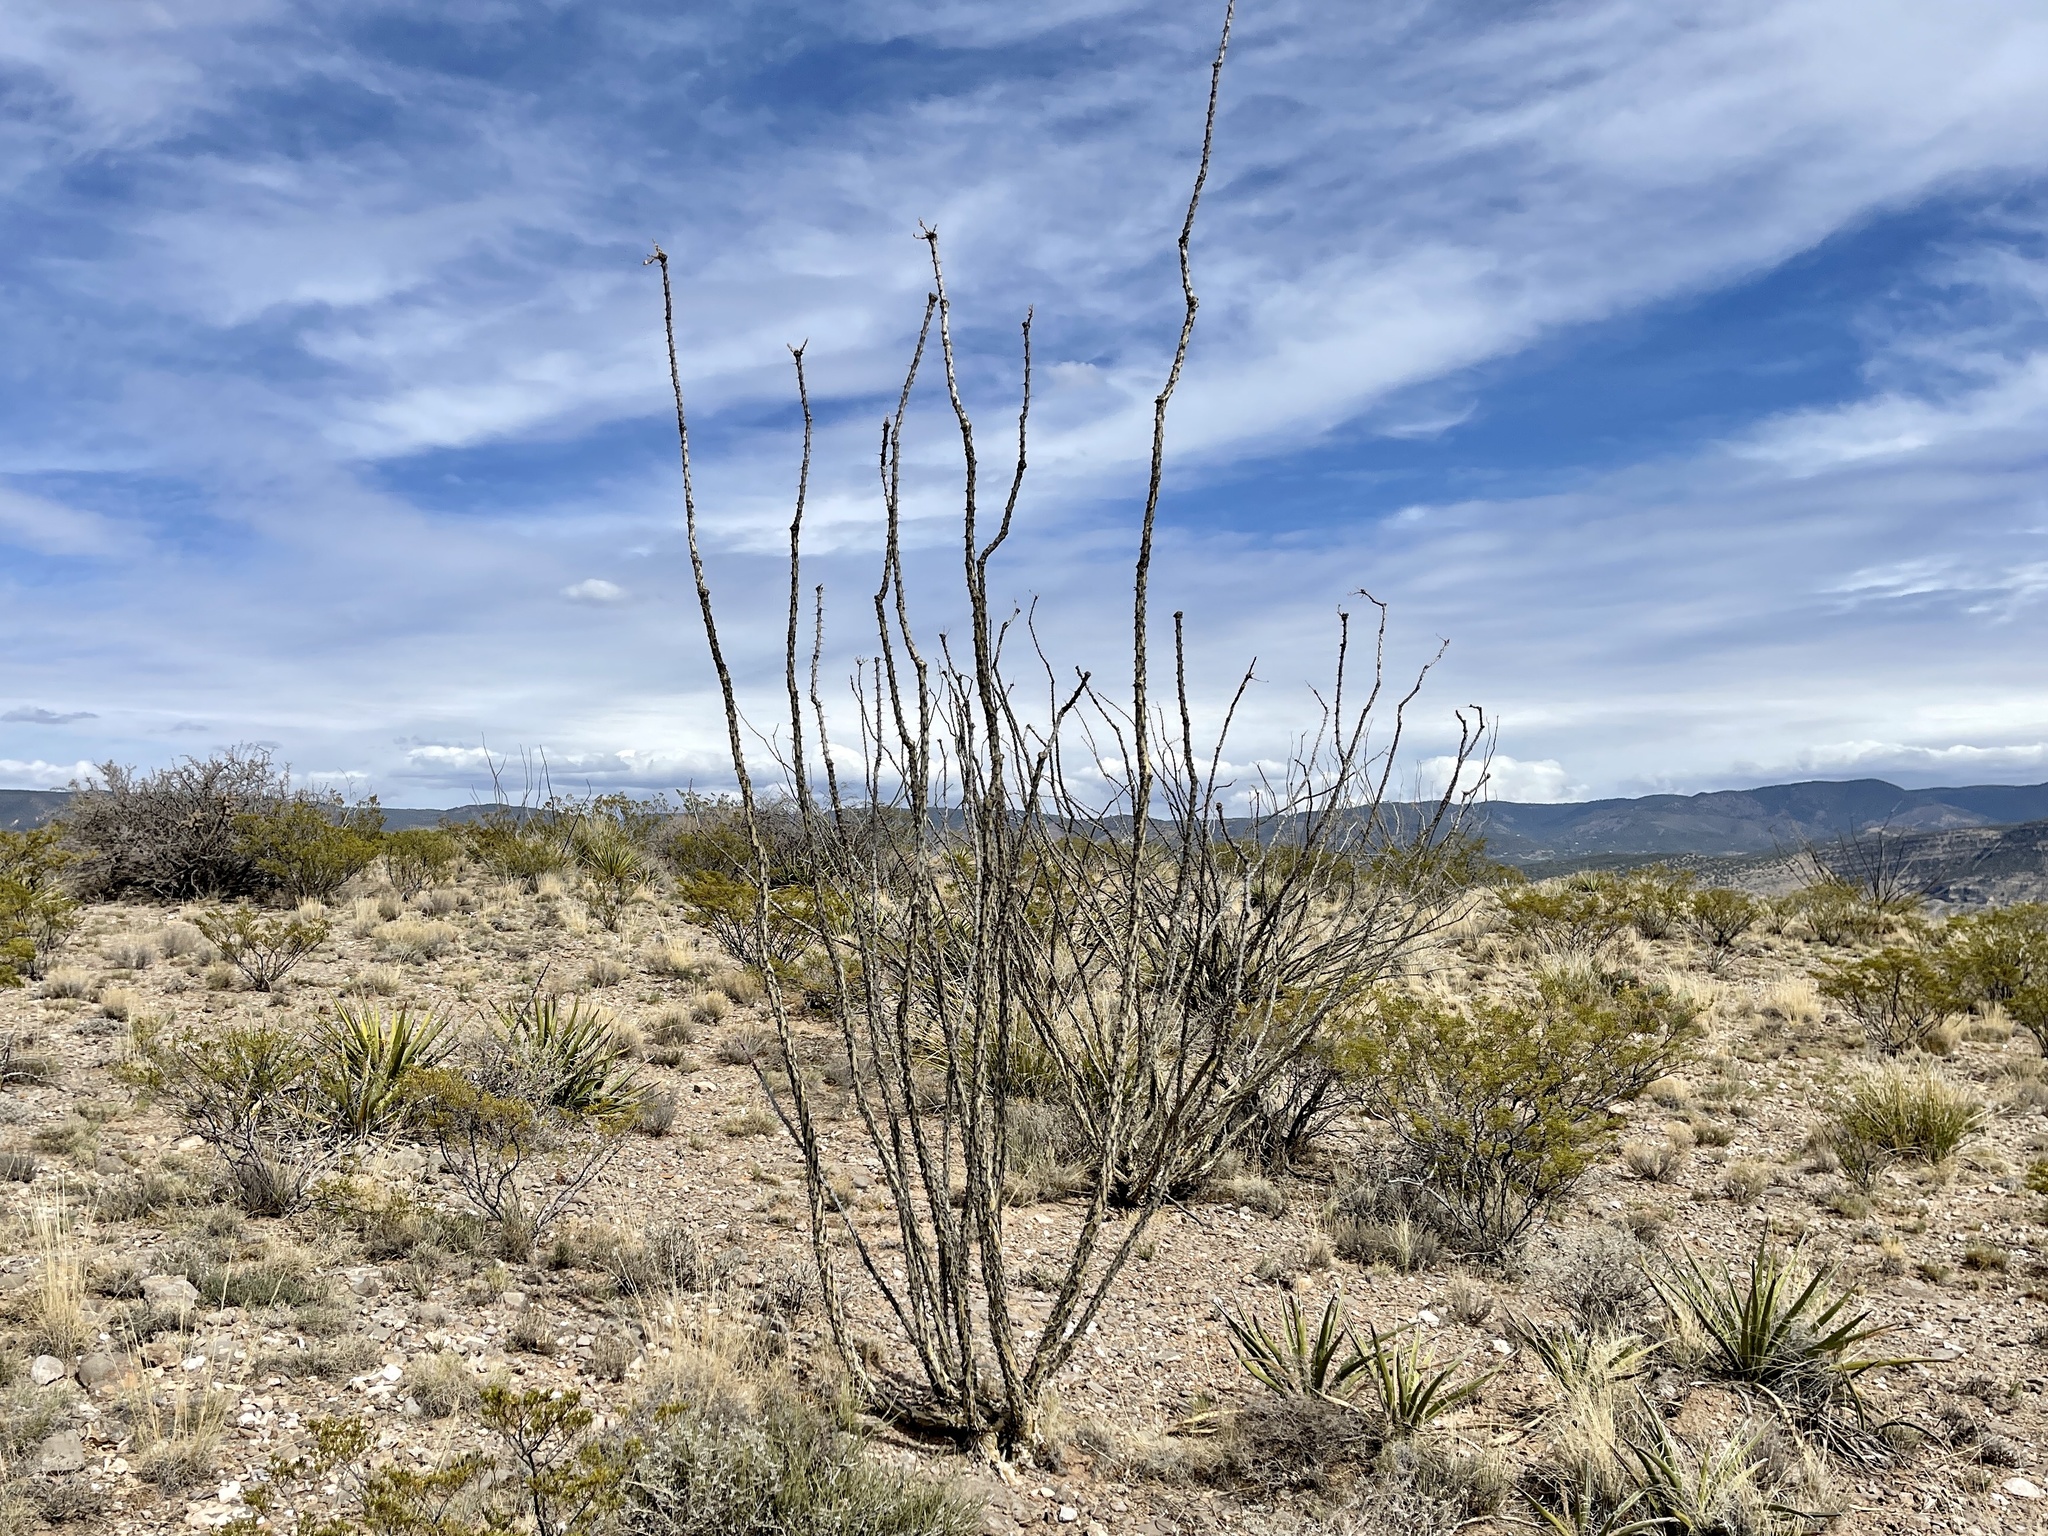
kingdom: Plantae
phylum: Tracheophyta
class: Magnoliopsida
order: Ericales
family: Fouquieriaceae
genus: Fouquieria
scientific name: Fouquieria splendens
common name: Vine-cactus
